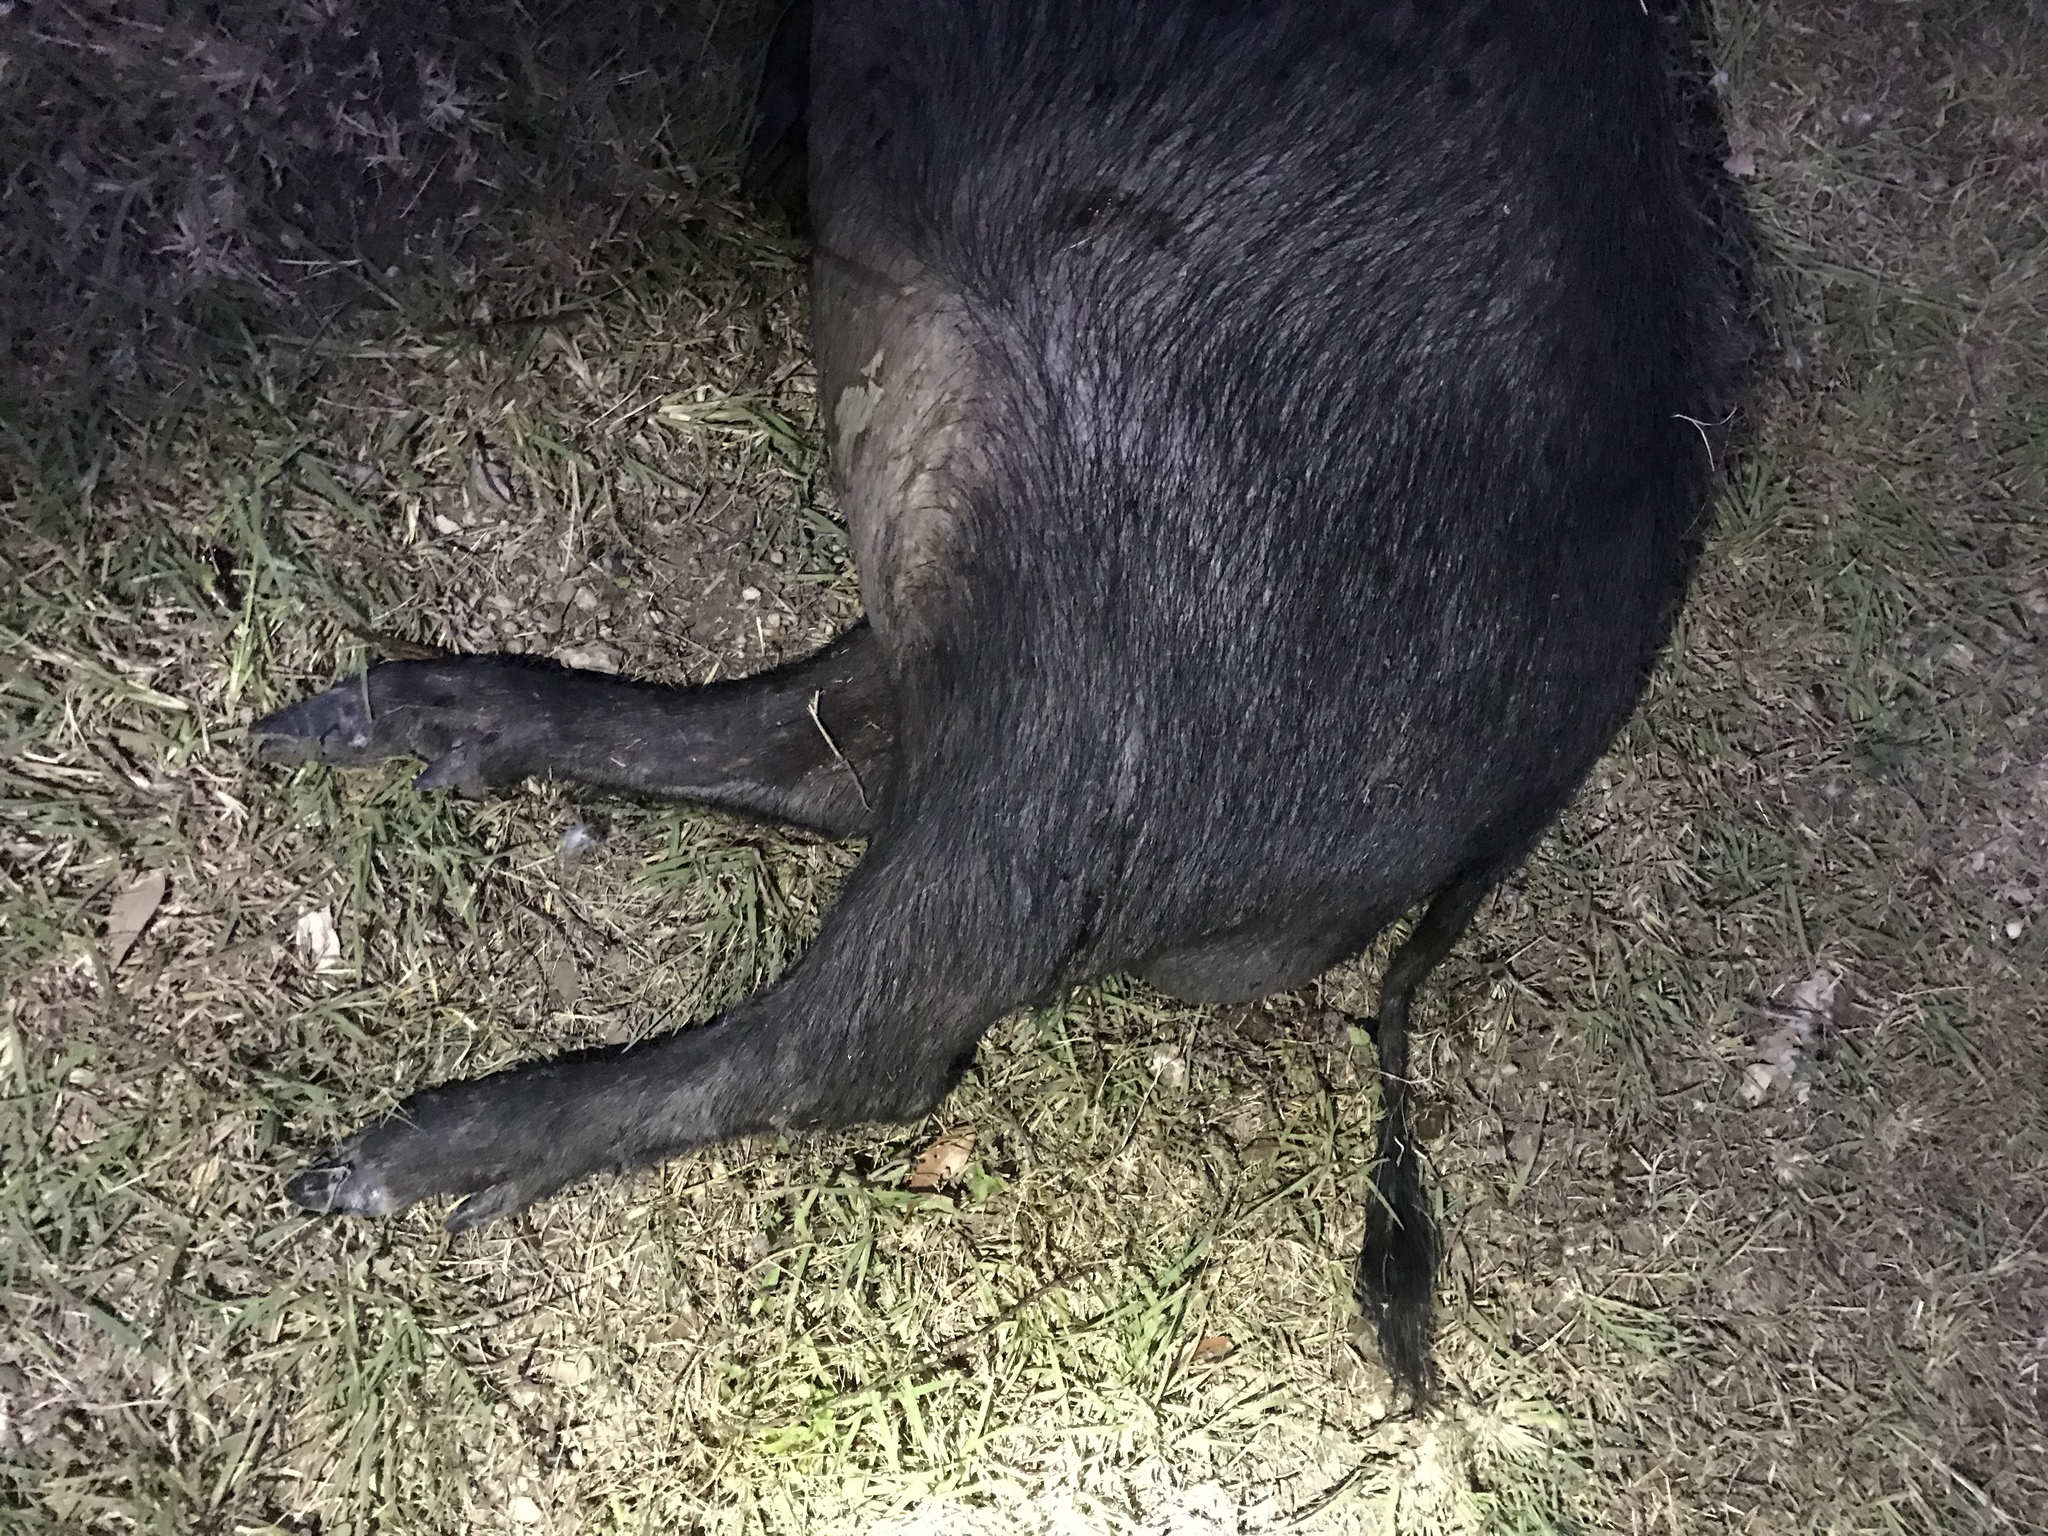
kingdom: Animalia
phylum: Chordata
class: Mammalia
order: Artiodactyla
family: Suidae
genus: Sus
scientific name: Sus scrofa
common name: Wild boar
